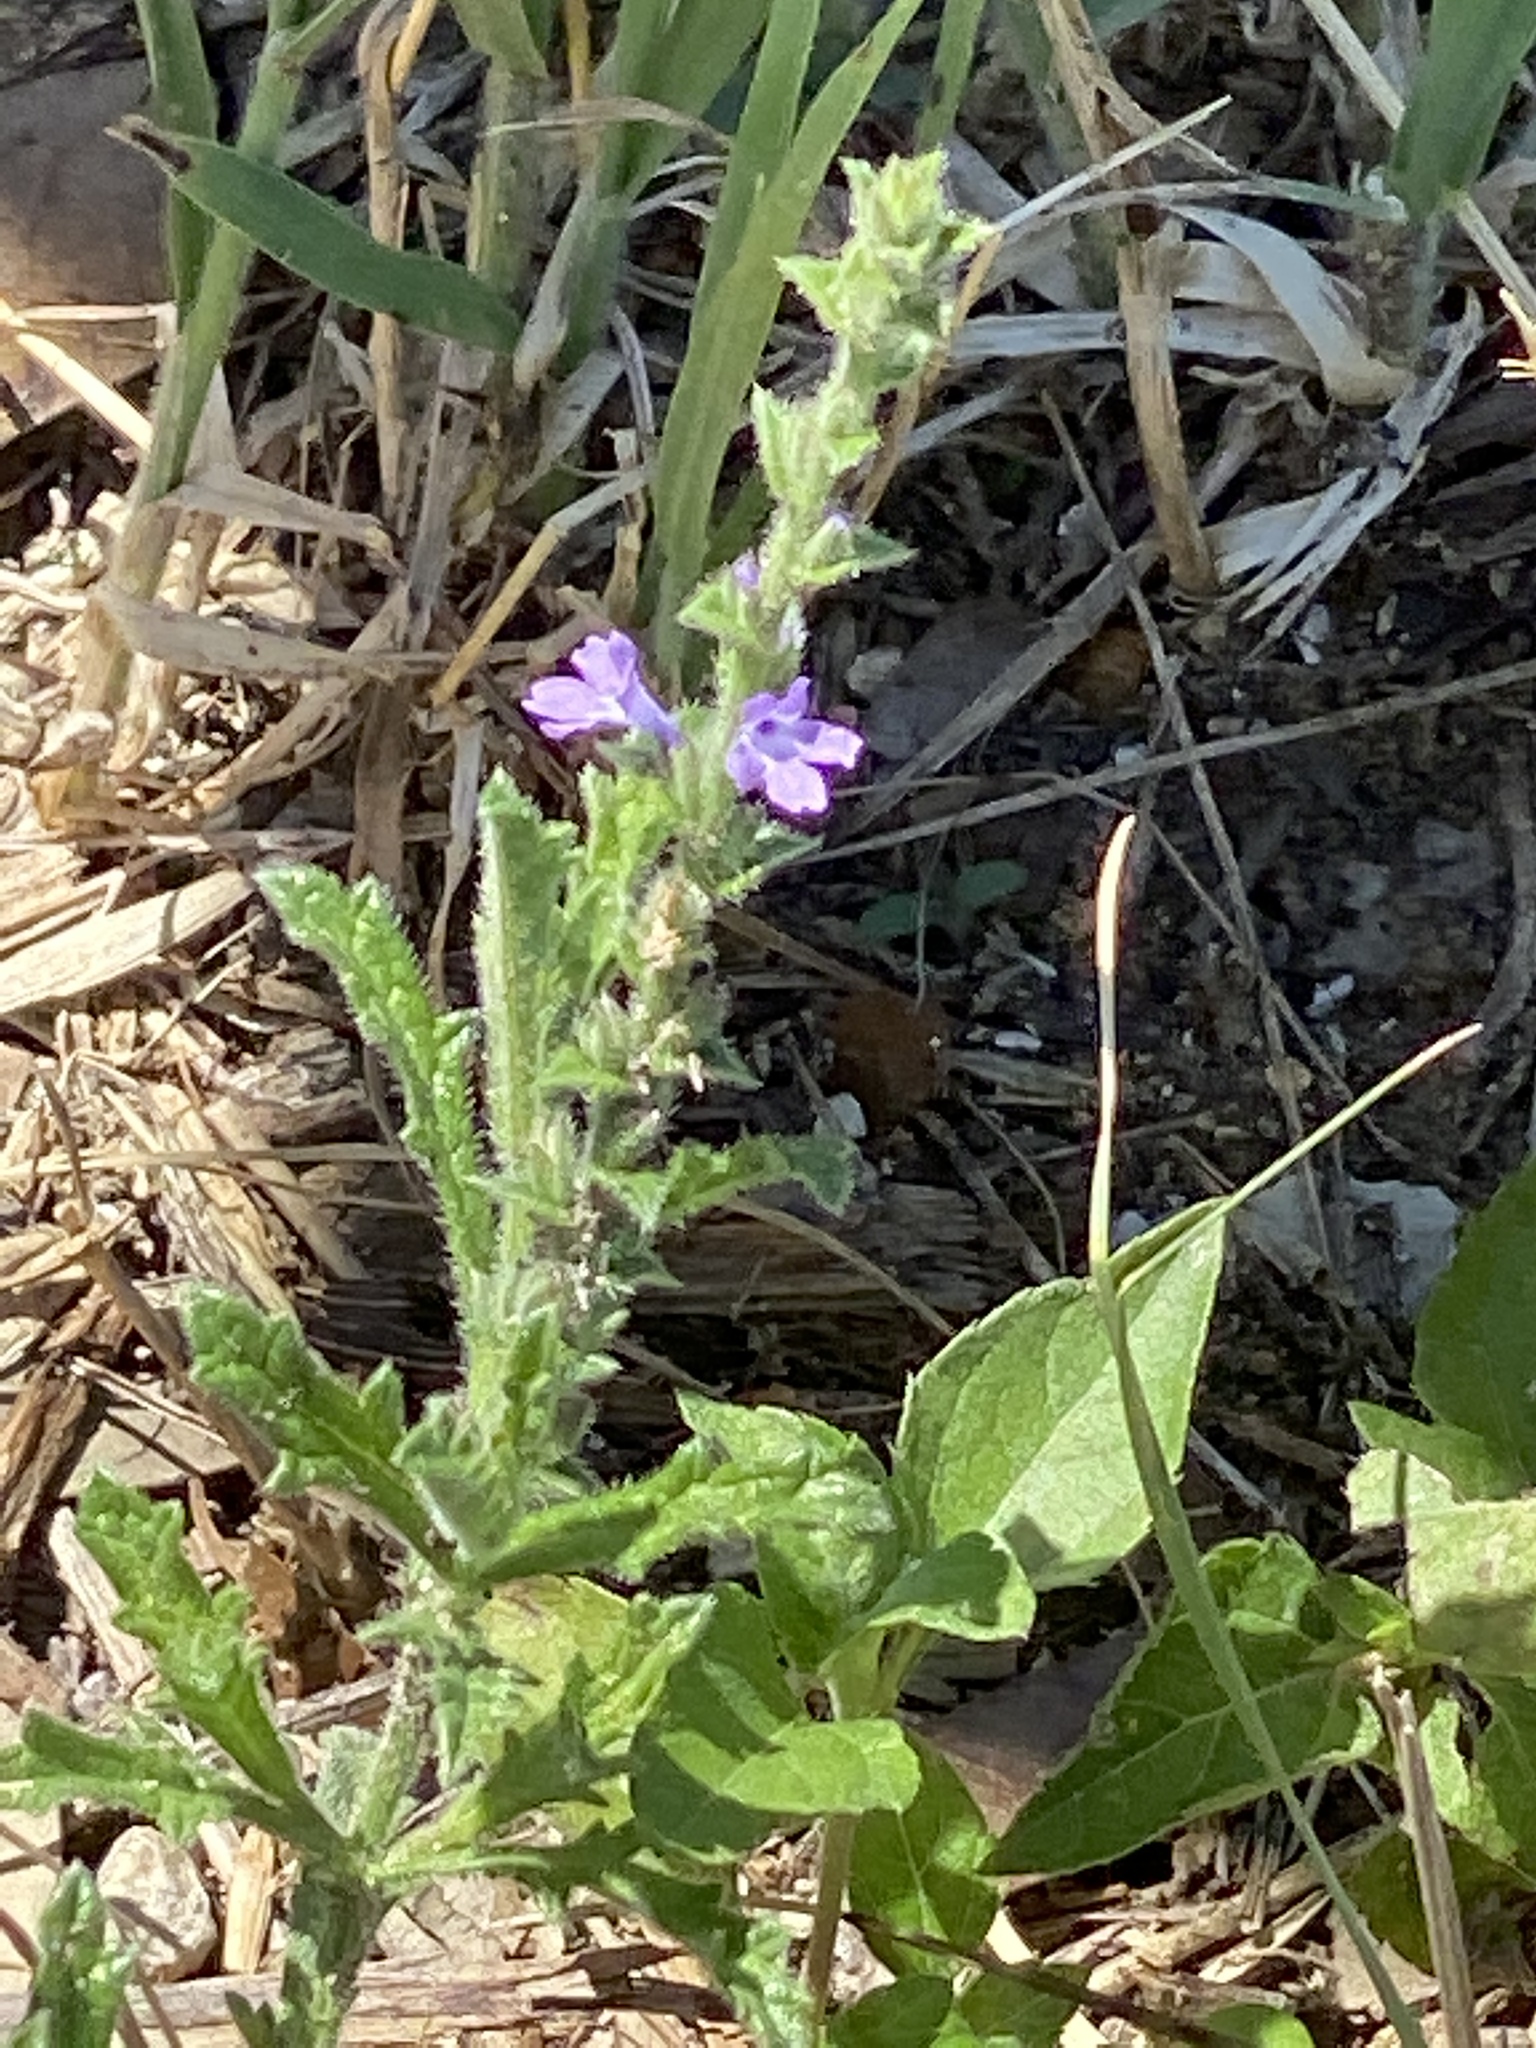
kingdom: Plantae
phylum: Tracheophyta
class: Magnoliopsida
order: Lamiales
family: Verbenaceae
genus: Verbena
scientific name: Verbena canescens
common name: Gray vervain
